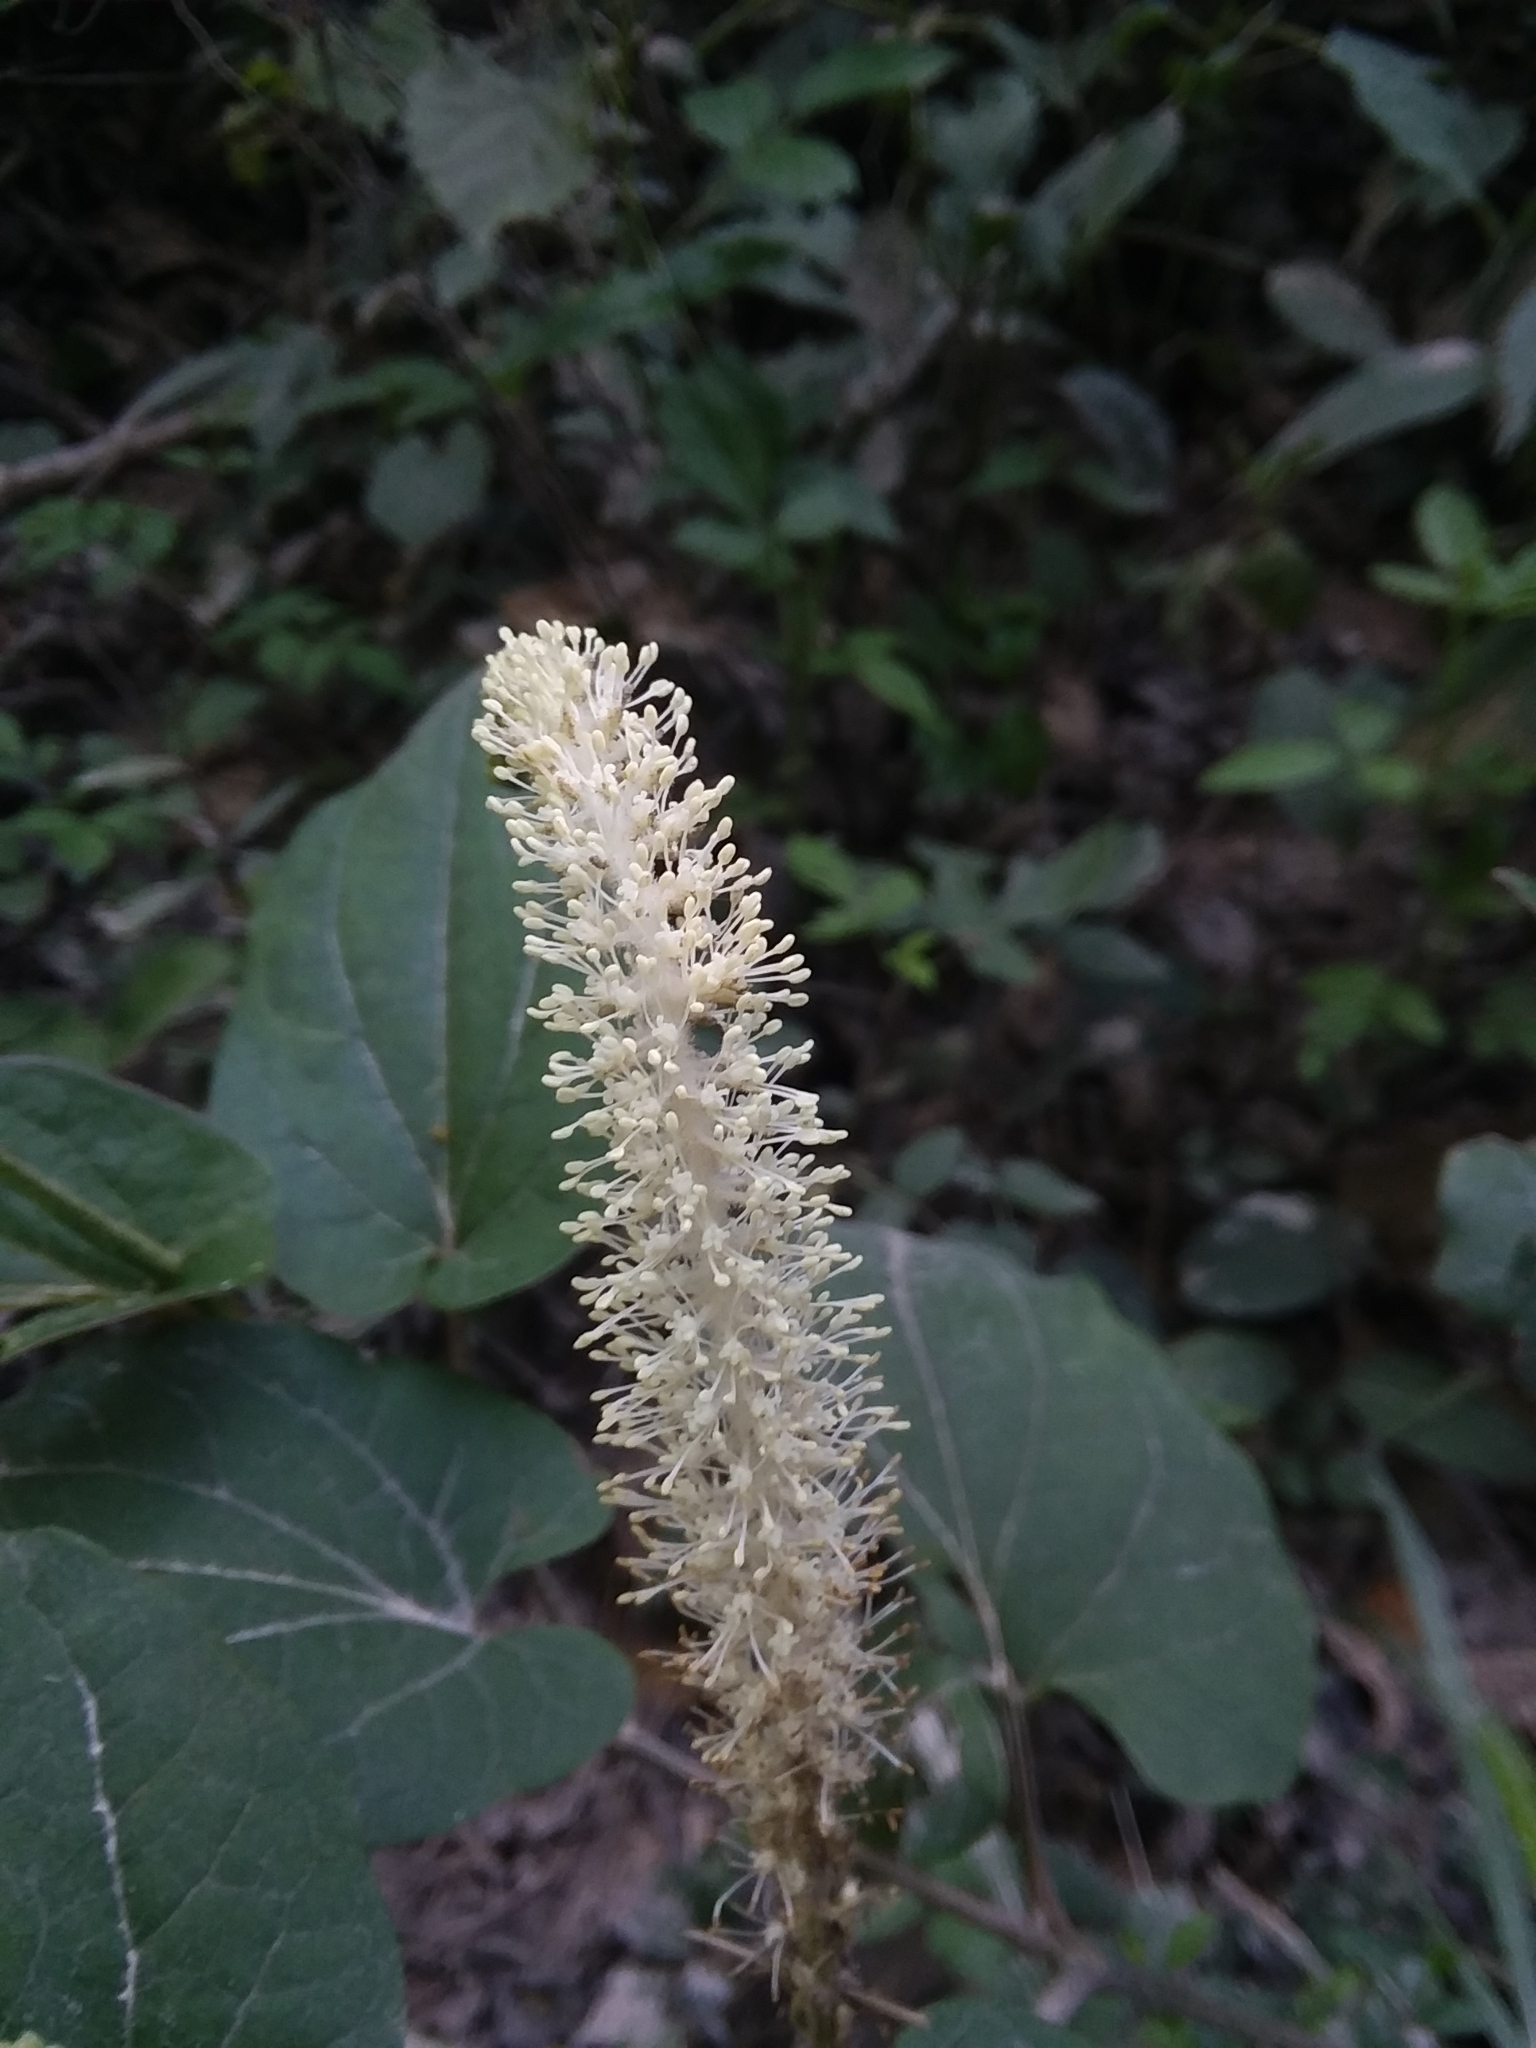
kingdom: Plantae
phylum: Tracheophyta
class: Magnoliopsida
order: Piperales
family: Saururaceae
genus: Saururus
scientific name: Saururus cernuus
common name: Lizard's-tail
